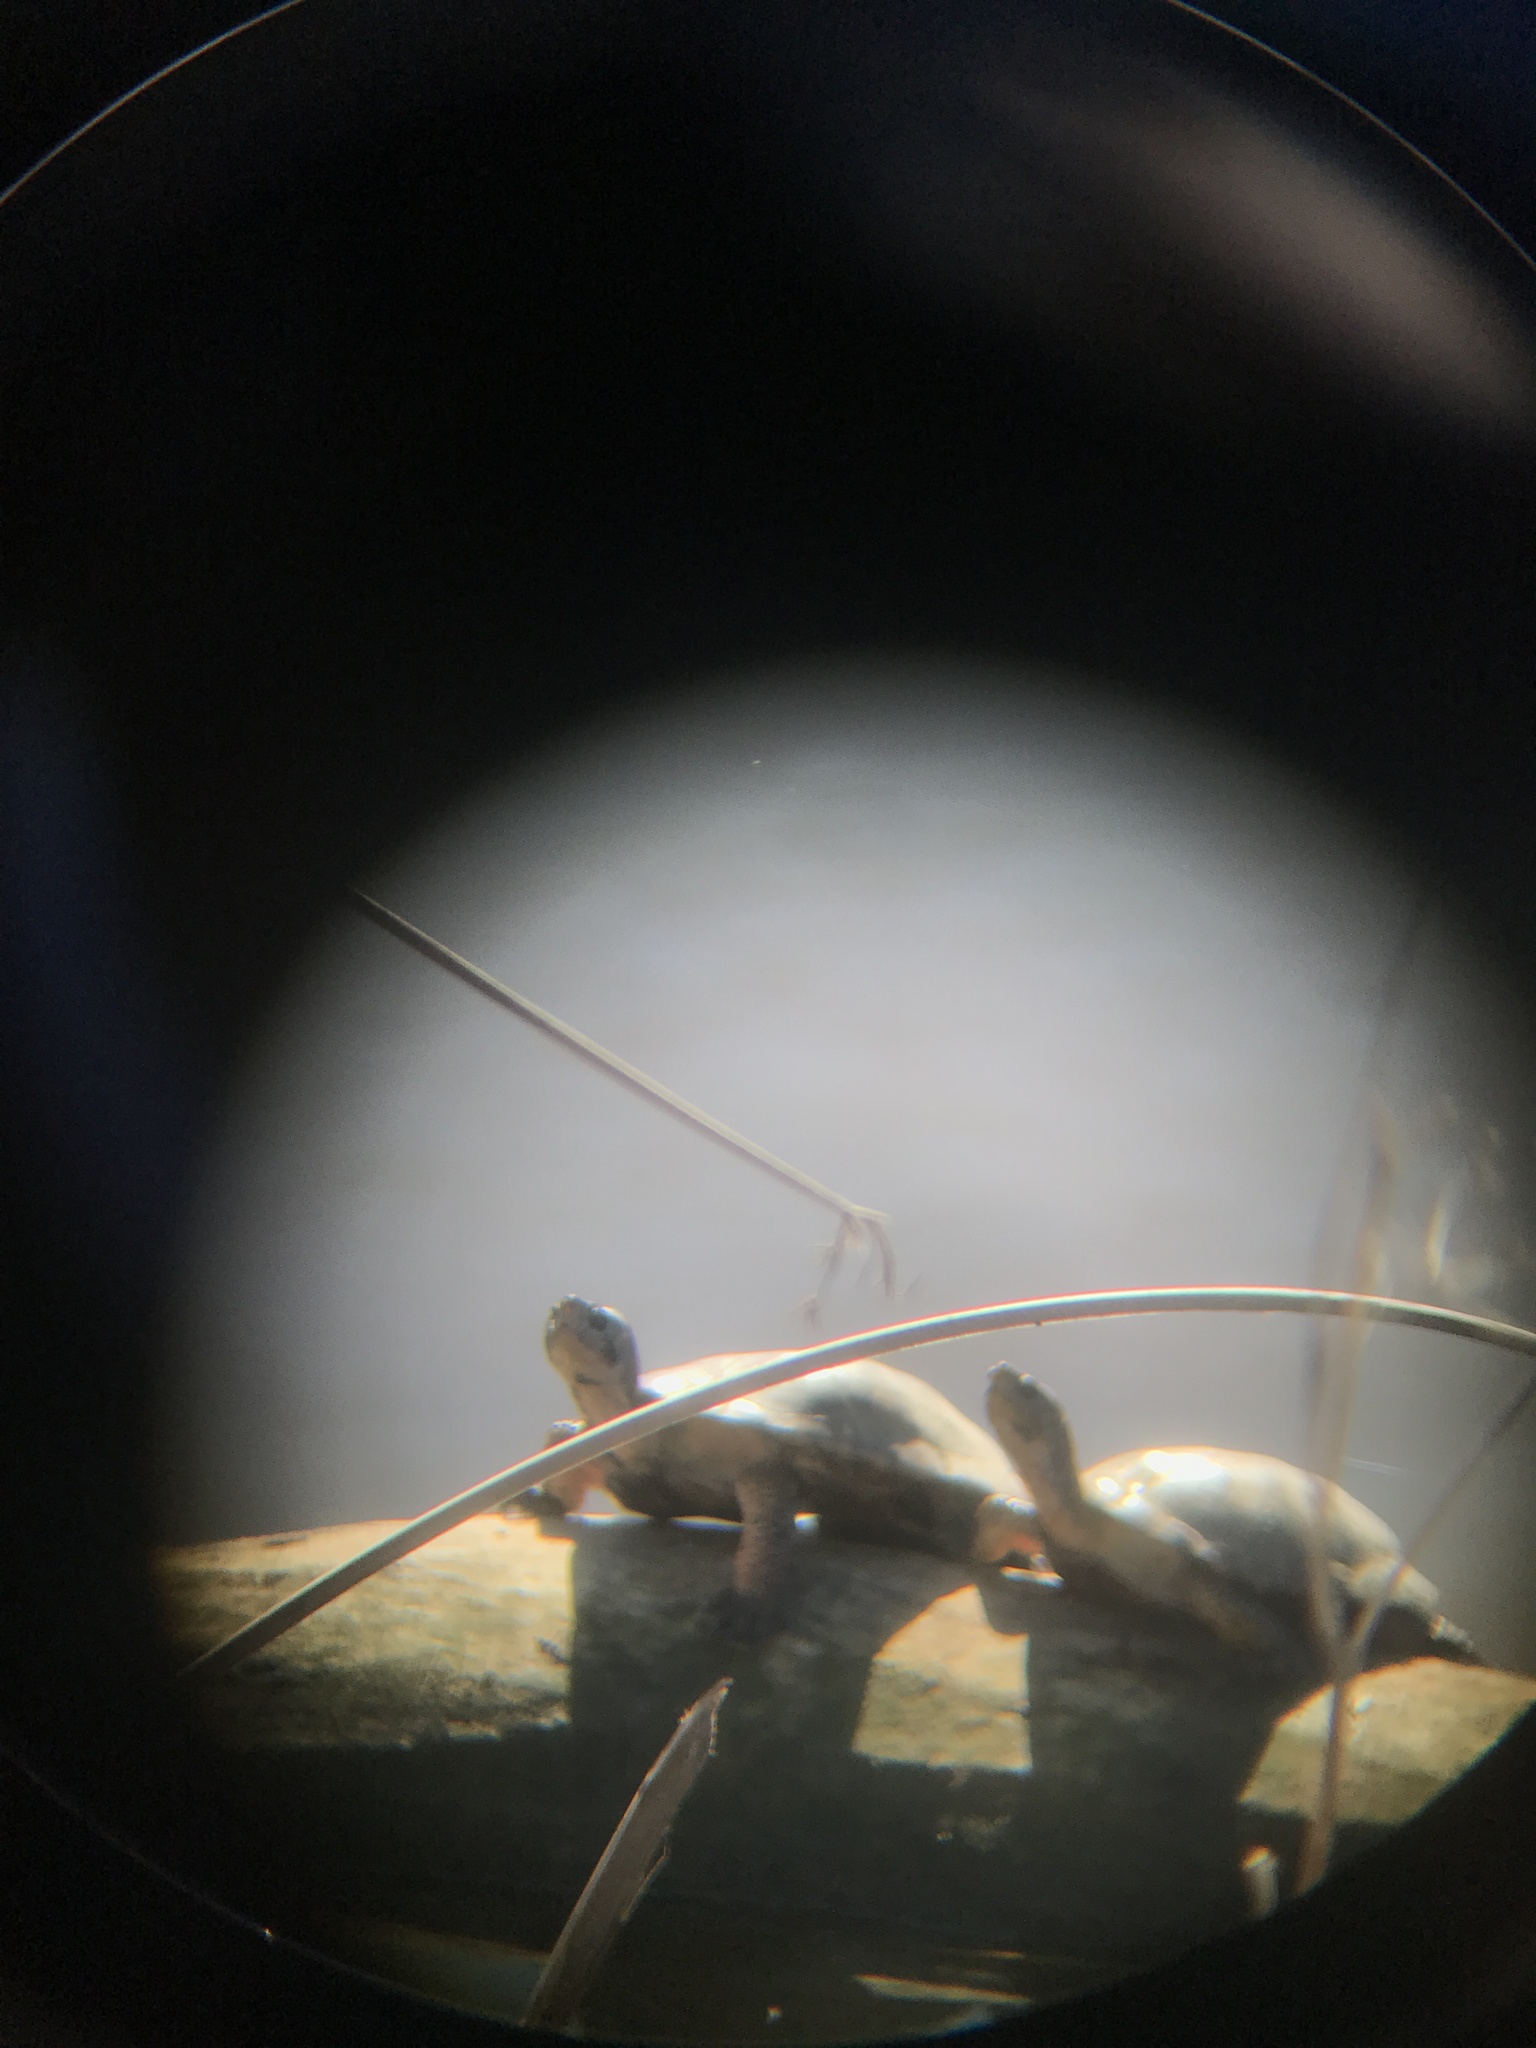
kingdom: Animalia
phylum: Chordata
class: Testudines
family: Emydidae
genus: Actinemys
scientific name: Actinemys marmorata
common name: Western pond turtle
